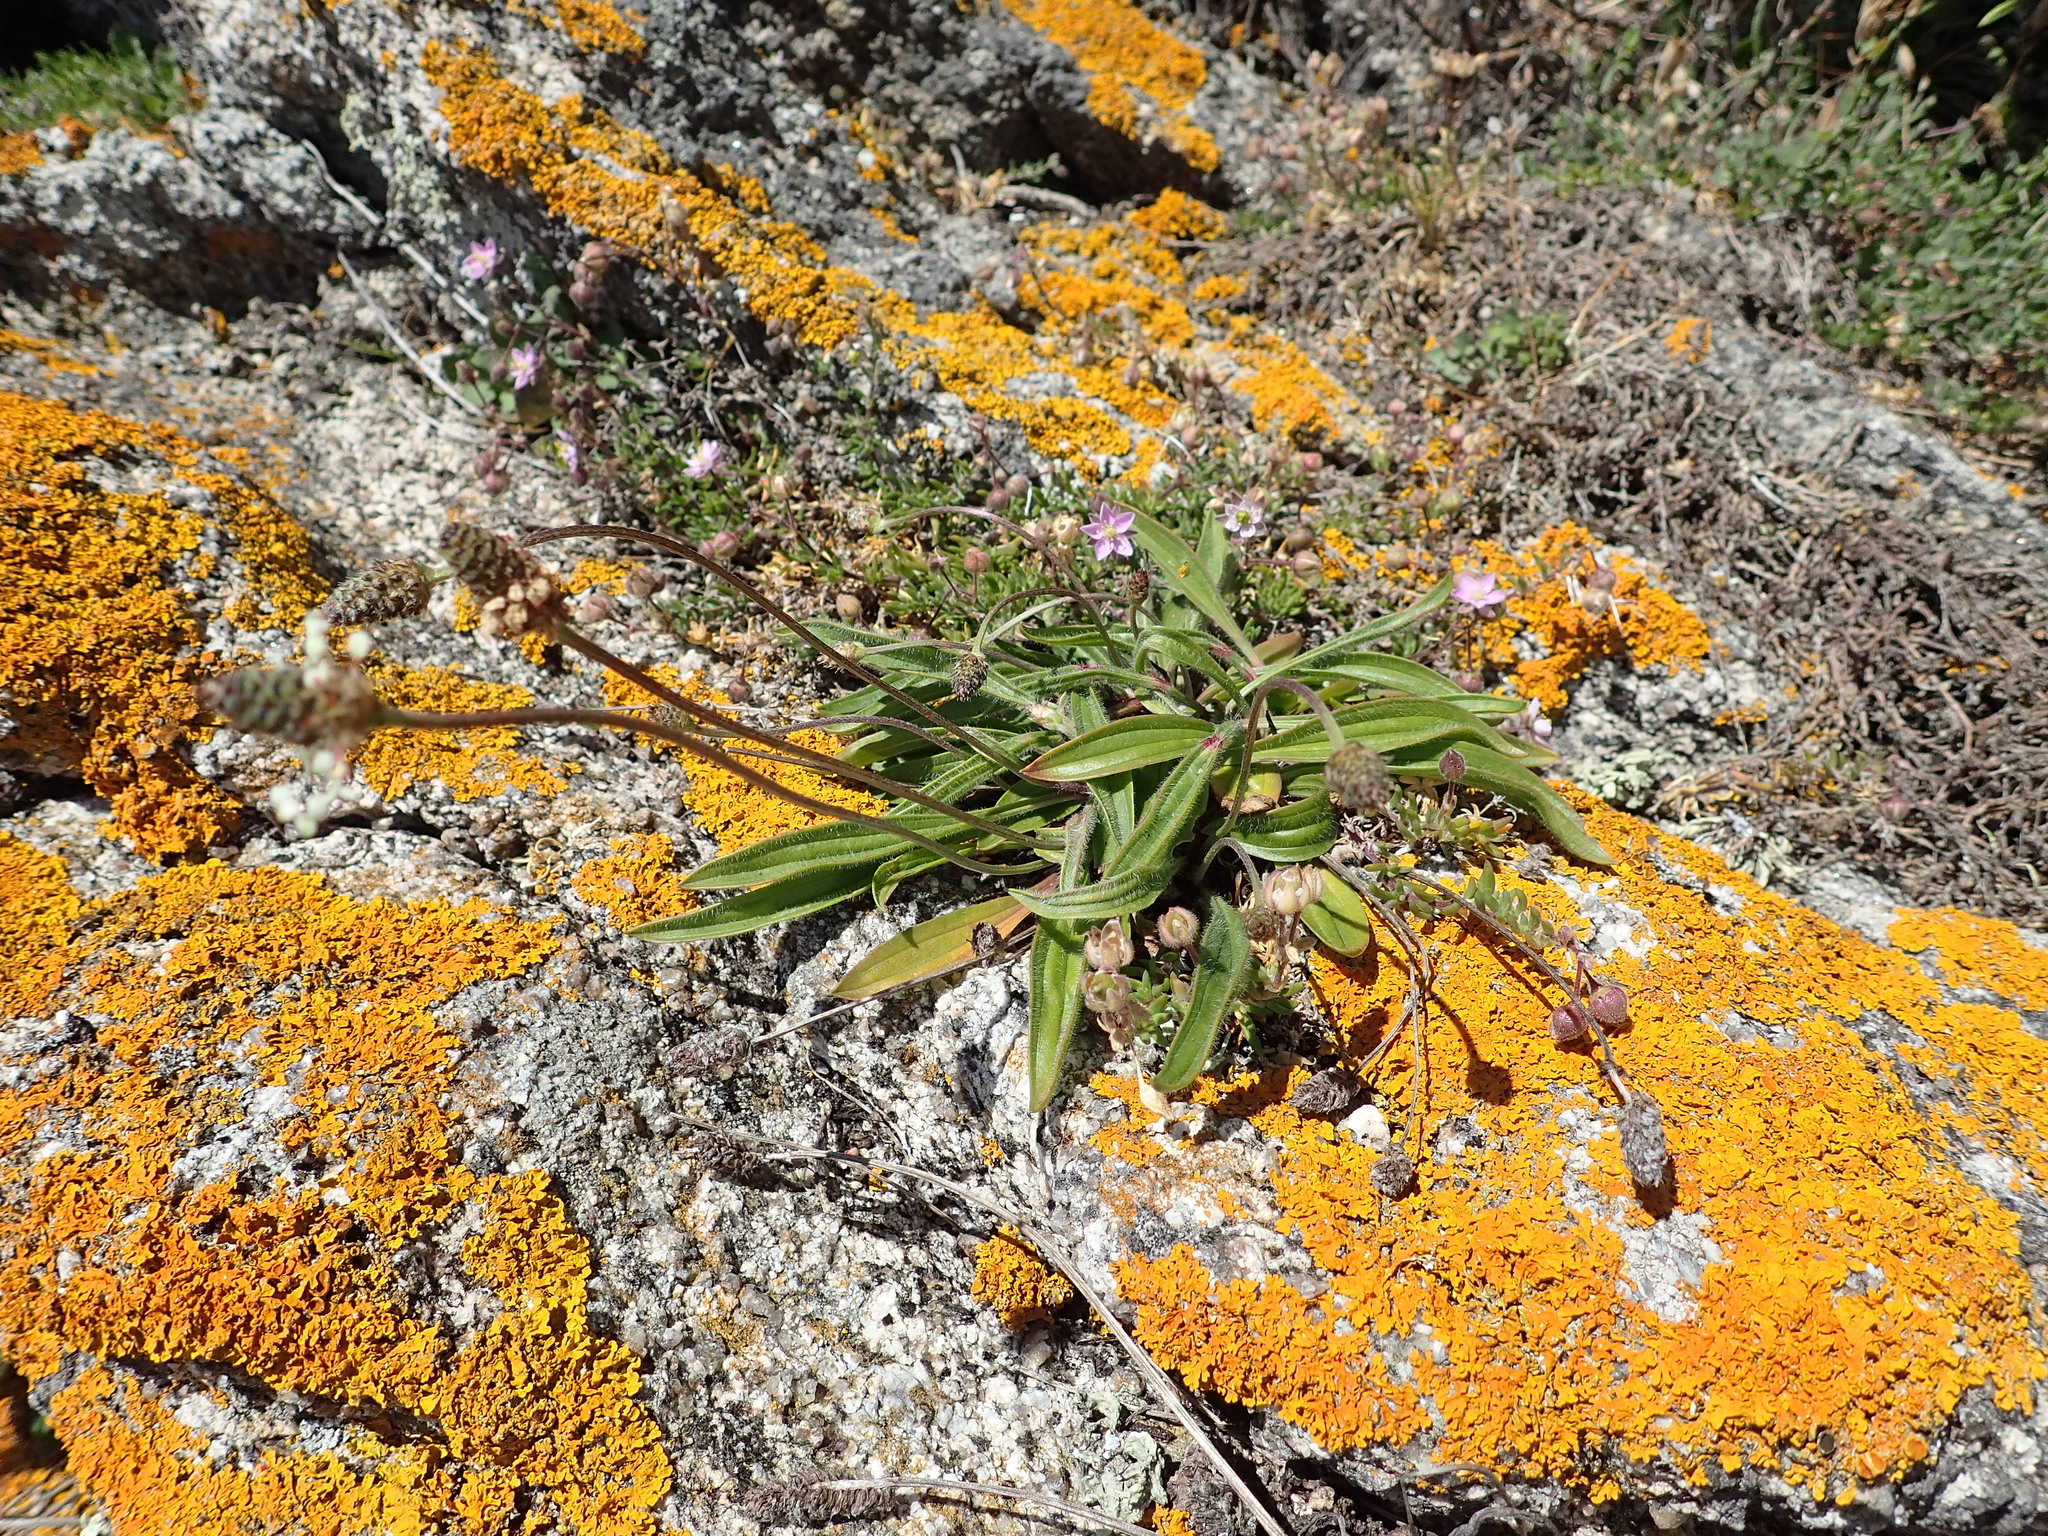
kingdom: Plantae
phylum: Tracheophyta
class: Magnoliopsida
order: Lamiales
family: Plantaginaceae
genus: Plantago
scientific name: Plantago lanceolata
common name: Ribwort plantain
